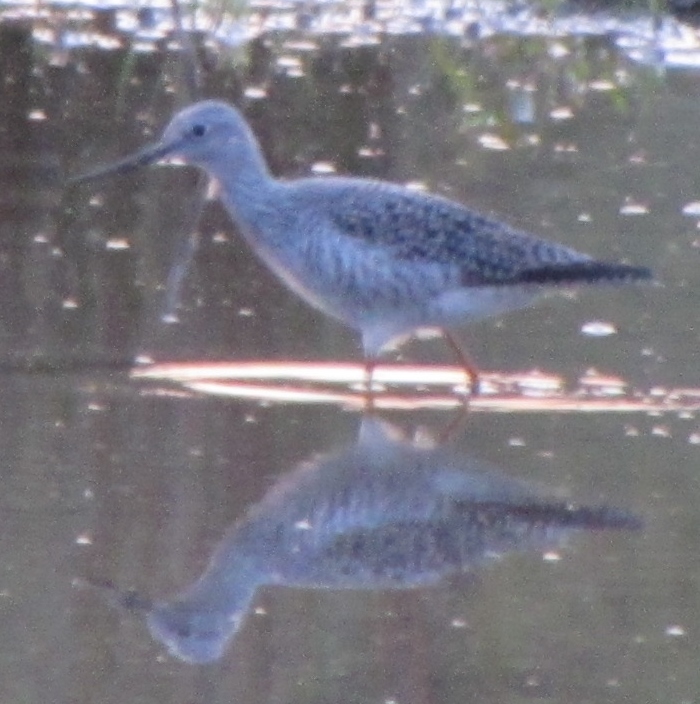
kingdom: Animalia
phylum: Chordata
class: Aves
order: Charadriiformes
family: Scolopacidae
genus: Tringa
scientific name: Tringa melanoleuca
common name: Greater yellowlegs
